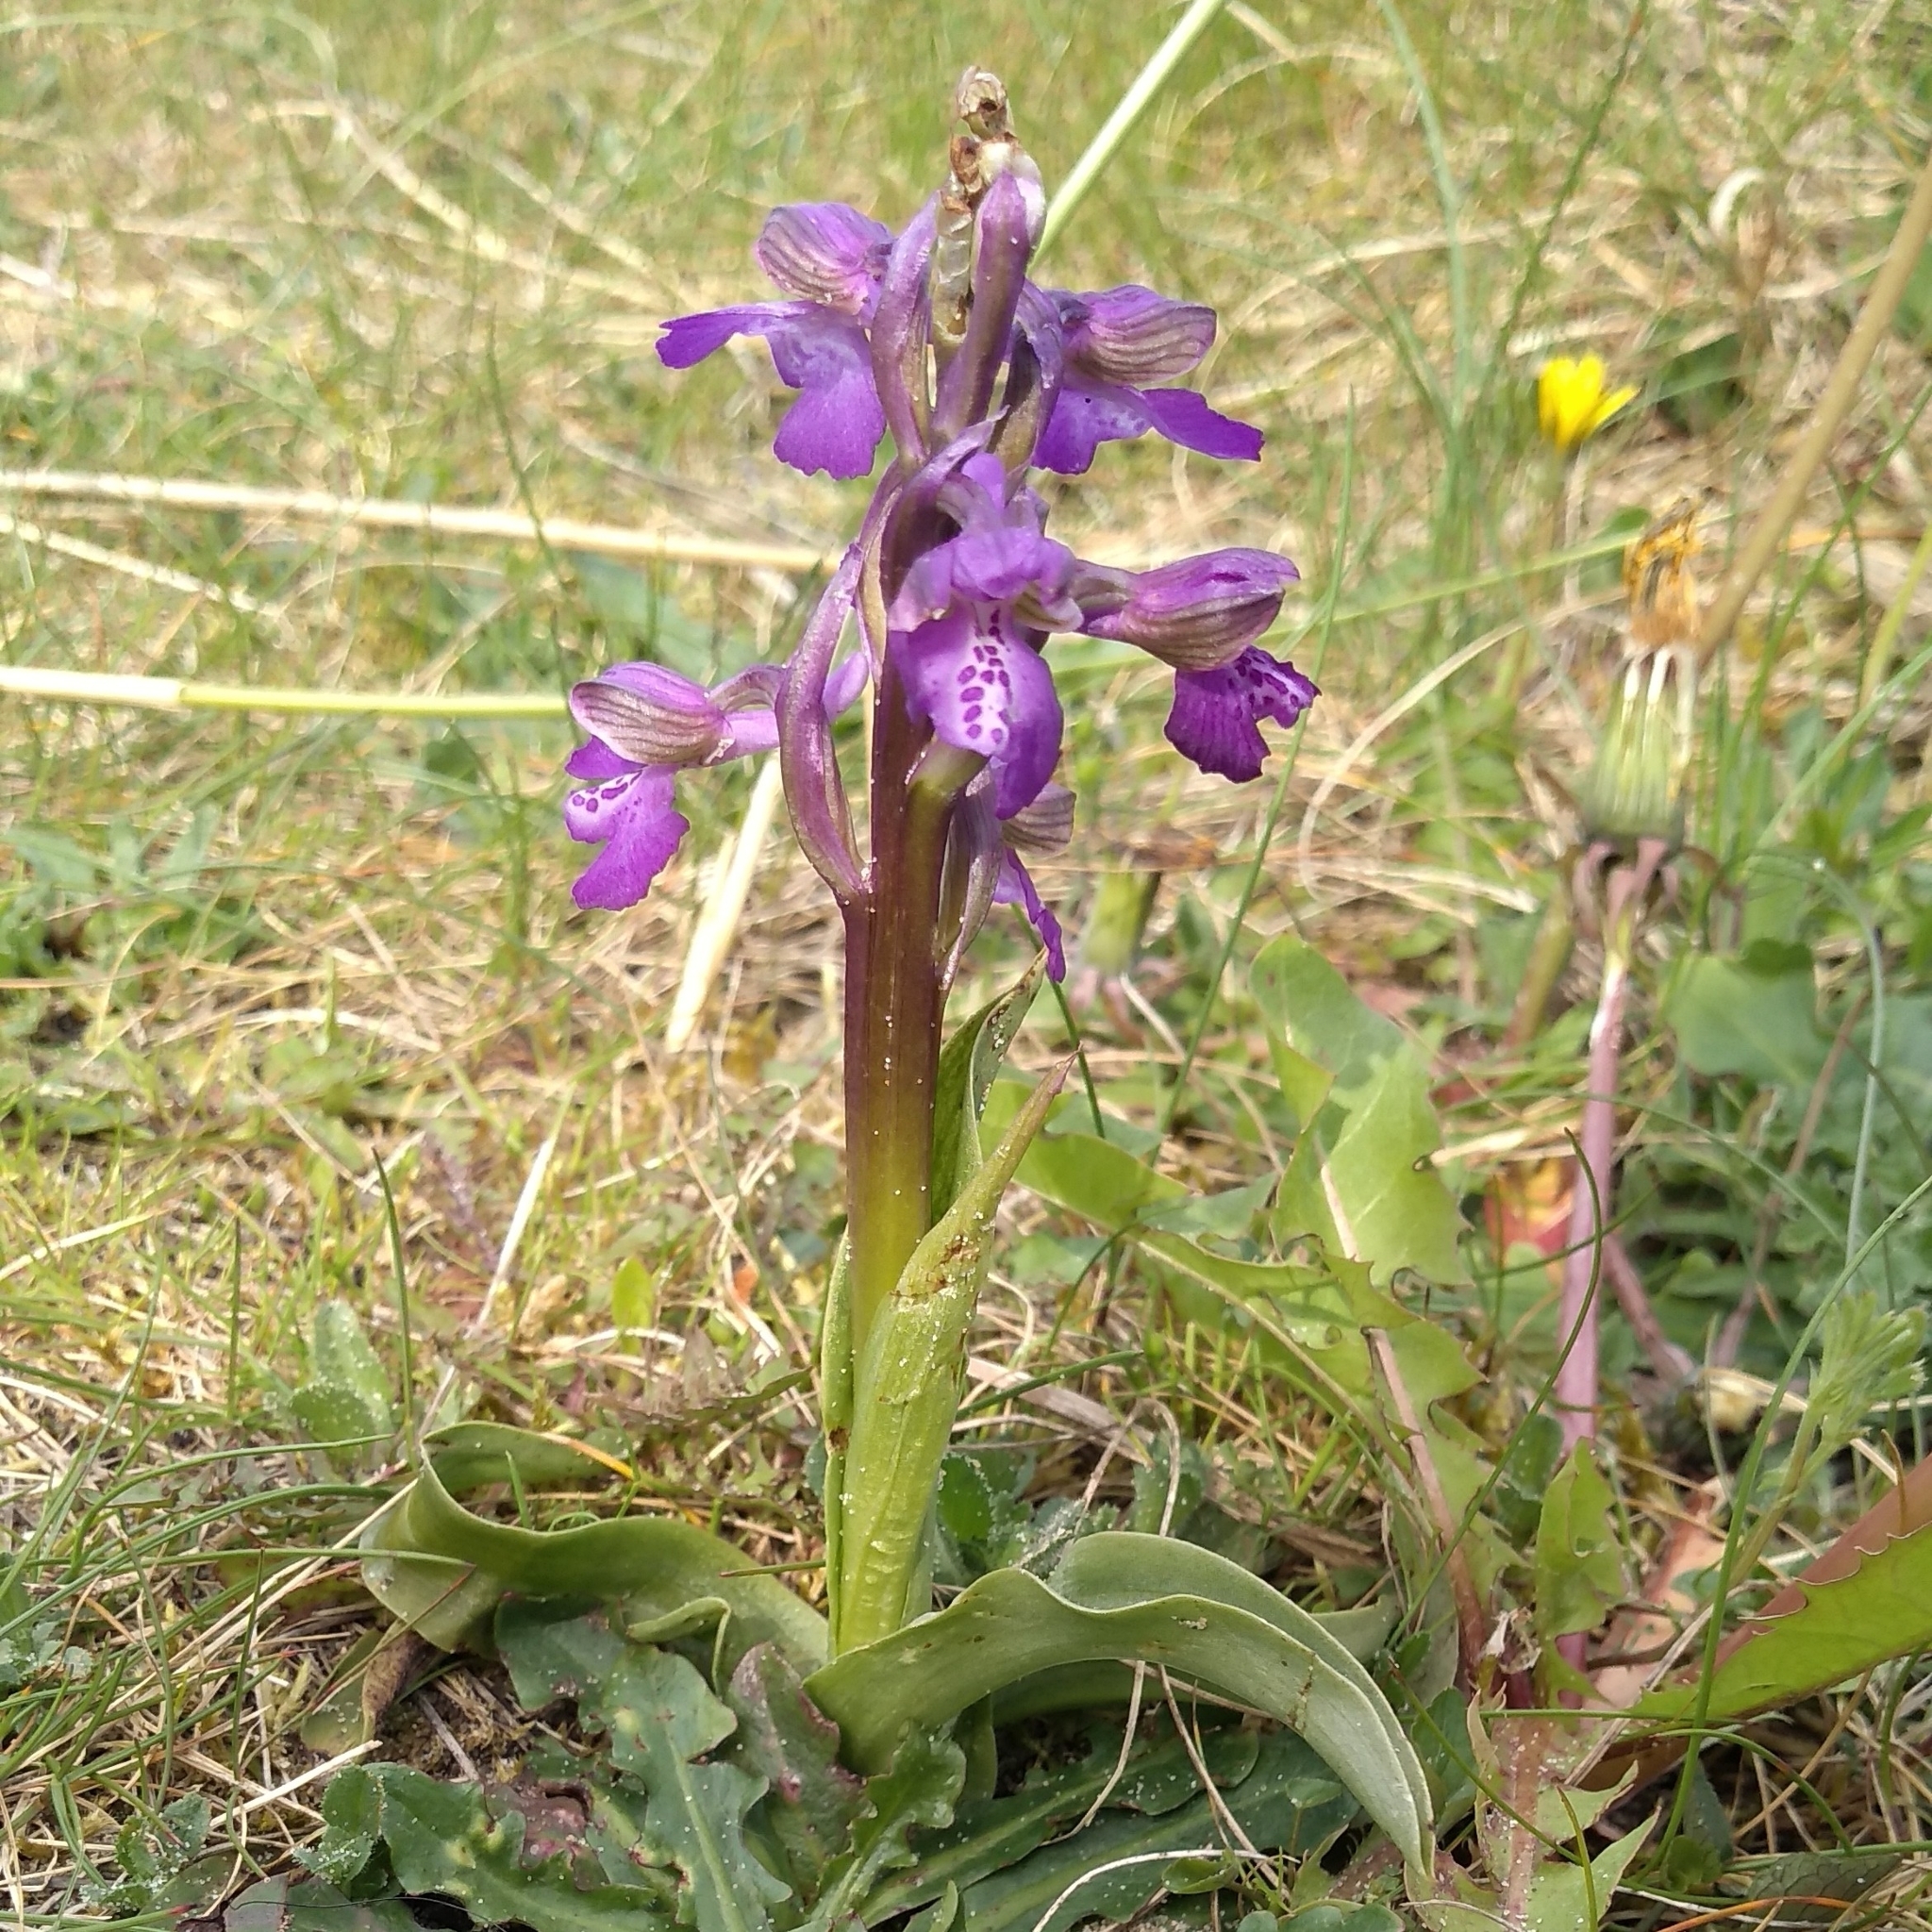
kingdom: Plantae
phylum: Tracheophyta
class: Liliopsida
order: Asparagales
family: Orchidaceae
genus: Anacamptis
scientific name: Anacamptis morio
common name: Green-winged orchid
